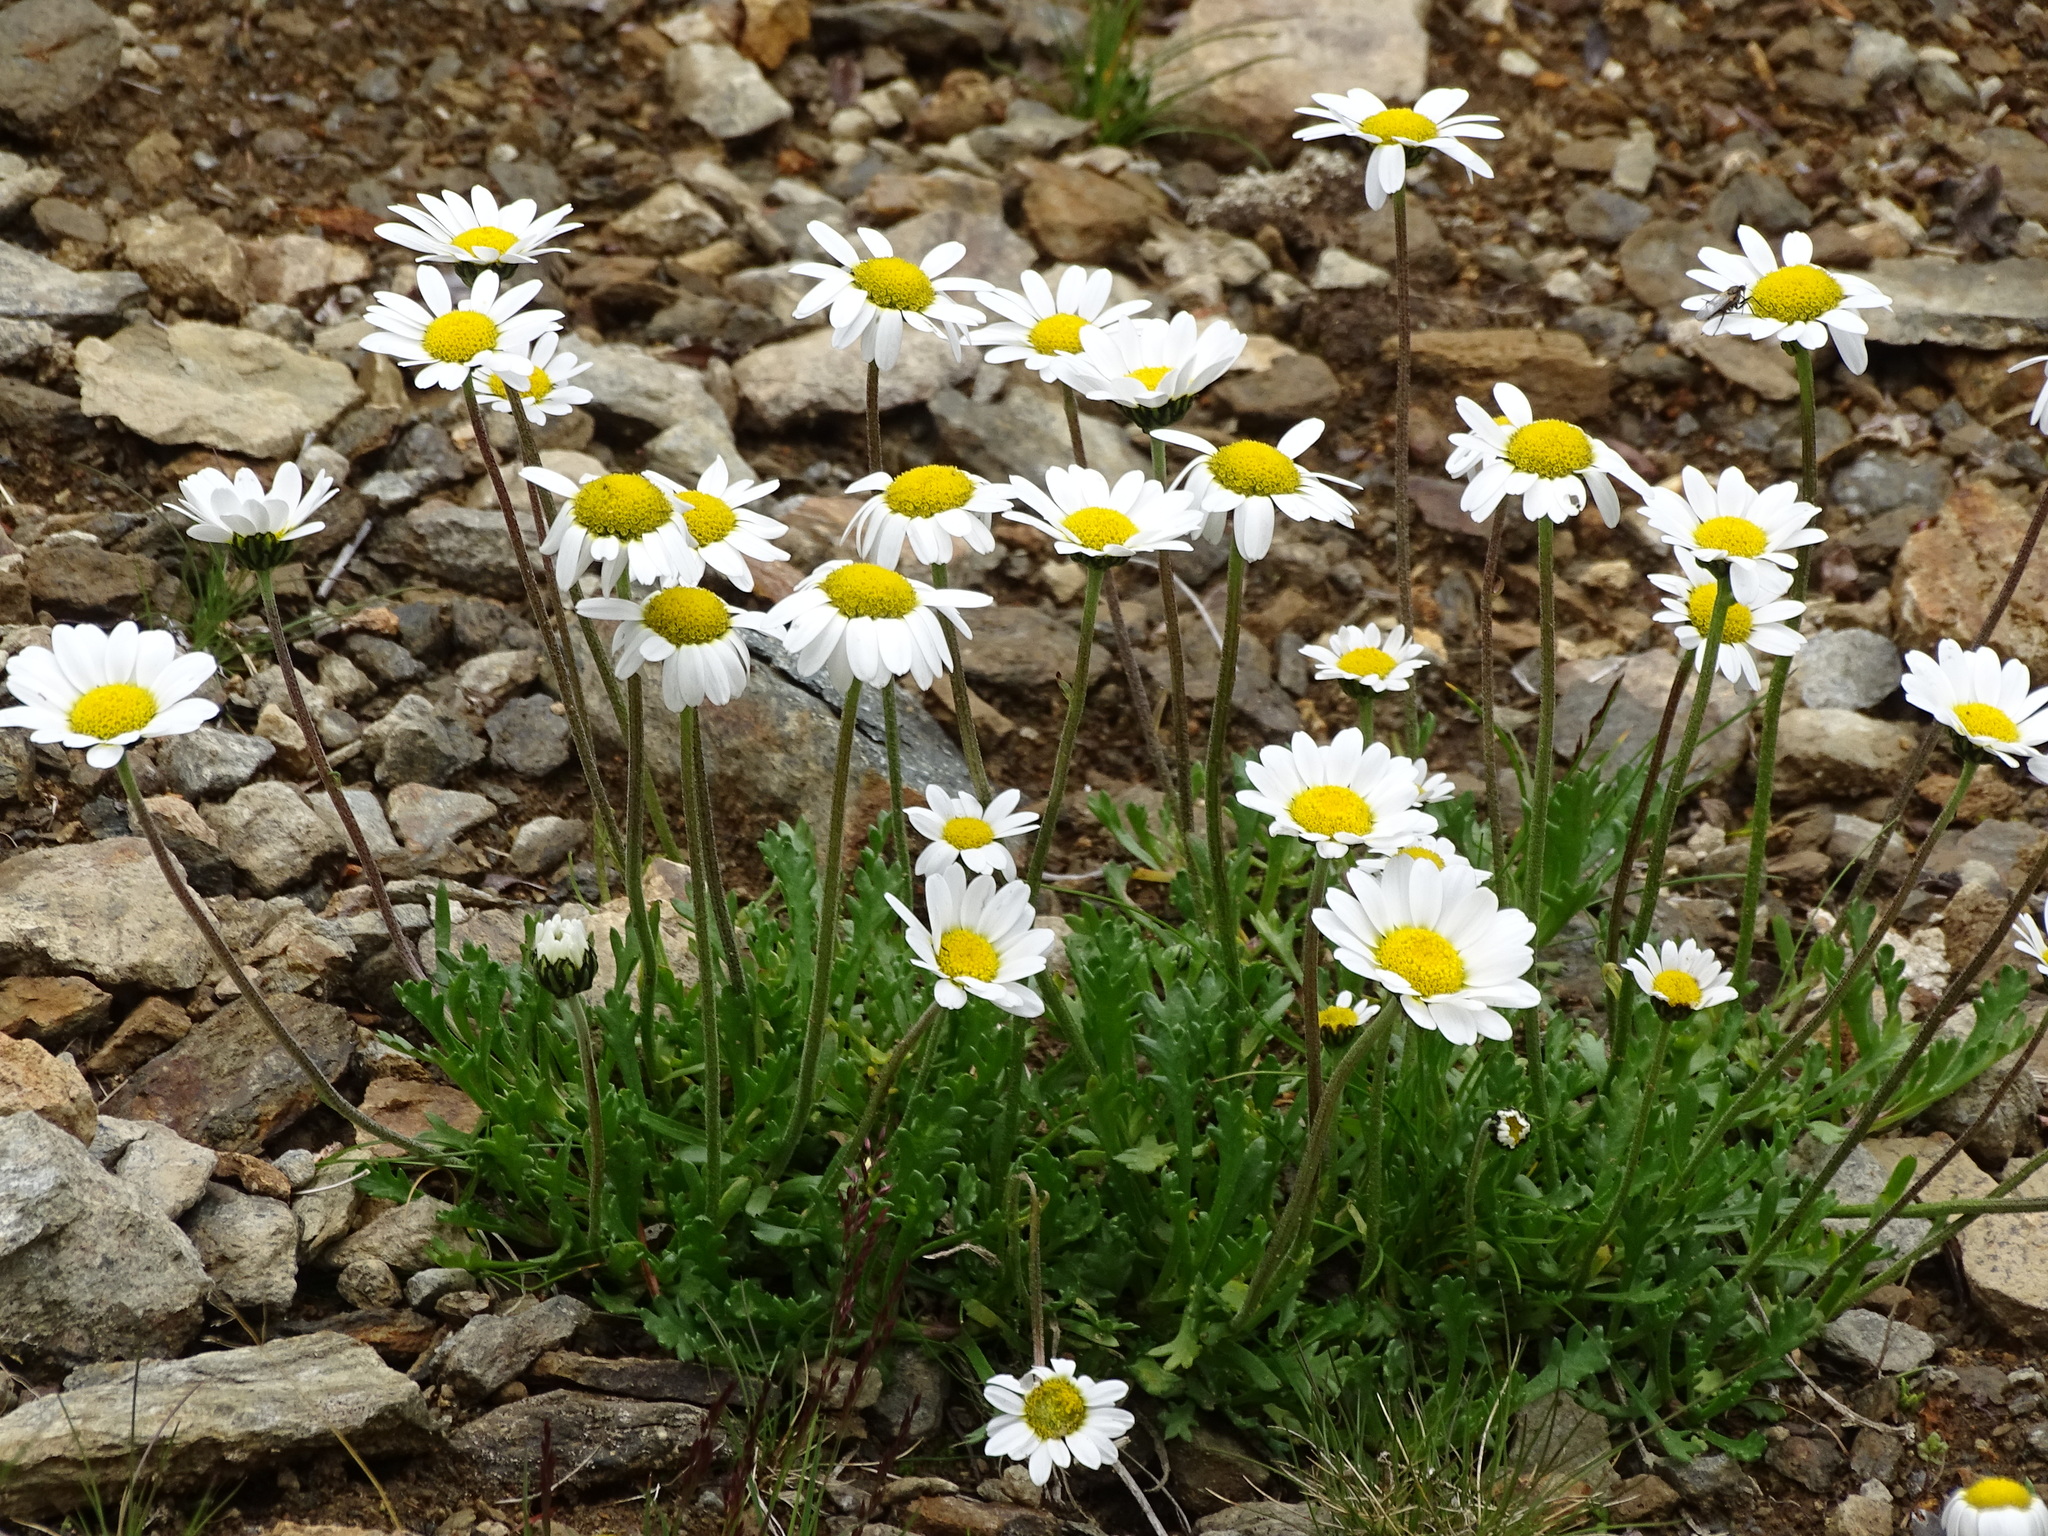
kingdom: Plantae
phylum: Tracheophyta
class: Magnoliopsida
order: Asterales
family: Asteraceae
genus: Leucanthemopsis
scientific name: Leucanthemopsis alpina
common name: Alpine moon daisy
